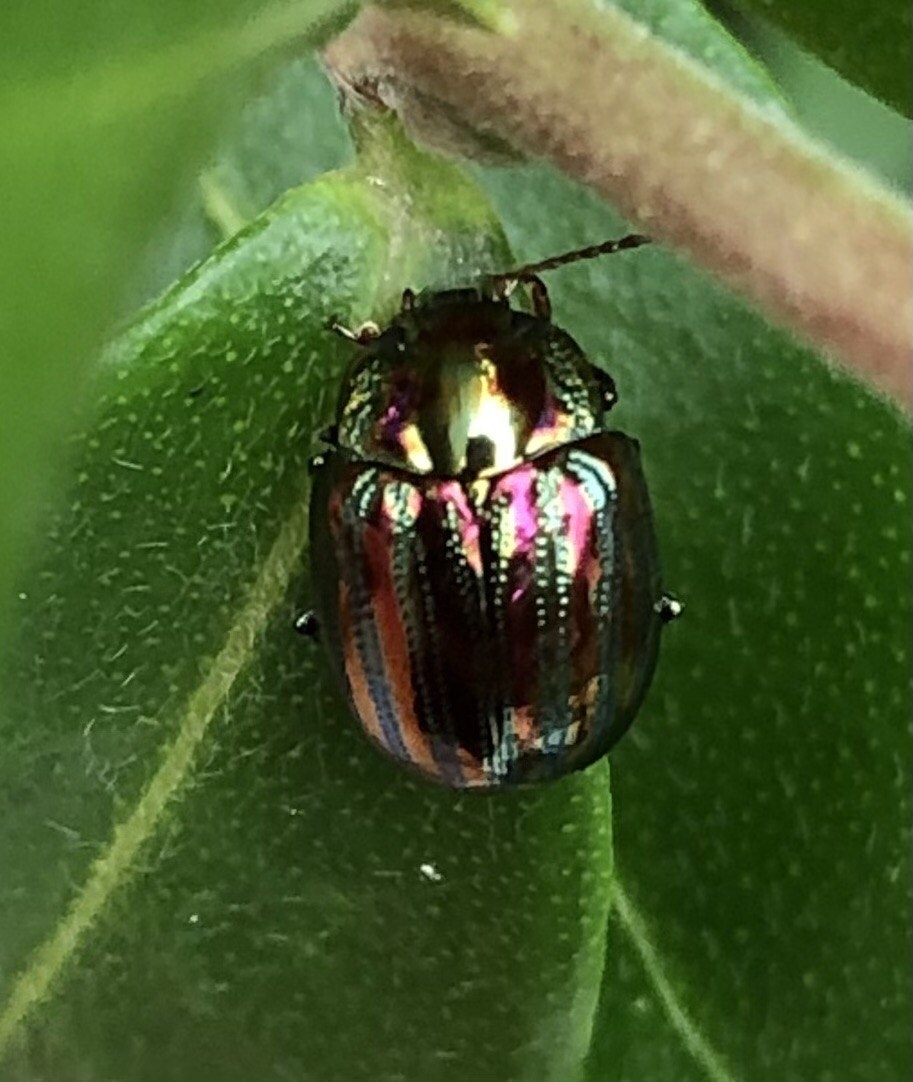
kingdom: Animalia
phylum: Arthropoda
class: Insecta
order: Coleoptera
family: Chrysomelidae
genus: Chrysolina
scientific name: Chrysolina americana
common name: Rosemary beetle
